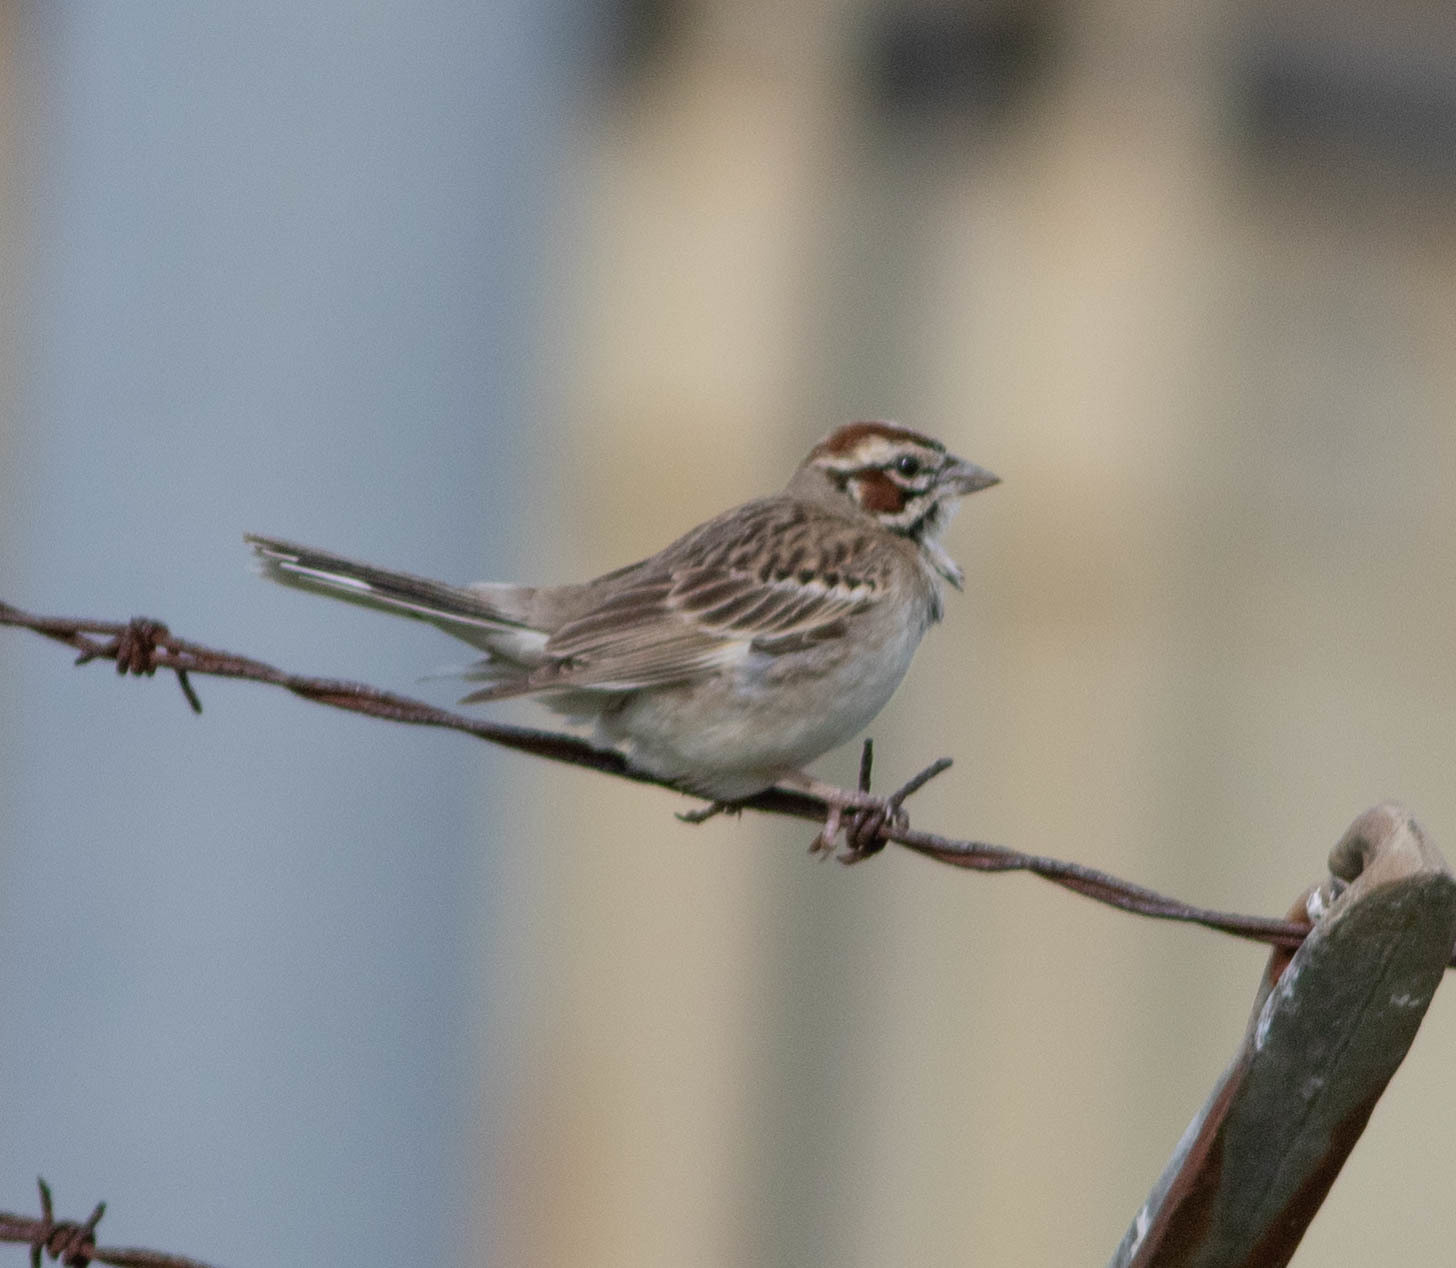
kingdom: Animalia
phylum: Chordata
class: Aves
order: Passeriformes
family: Passerellidae
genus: Chondestes
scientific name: Chondestes grammacus
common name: Lark sparrow
